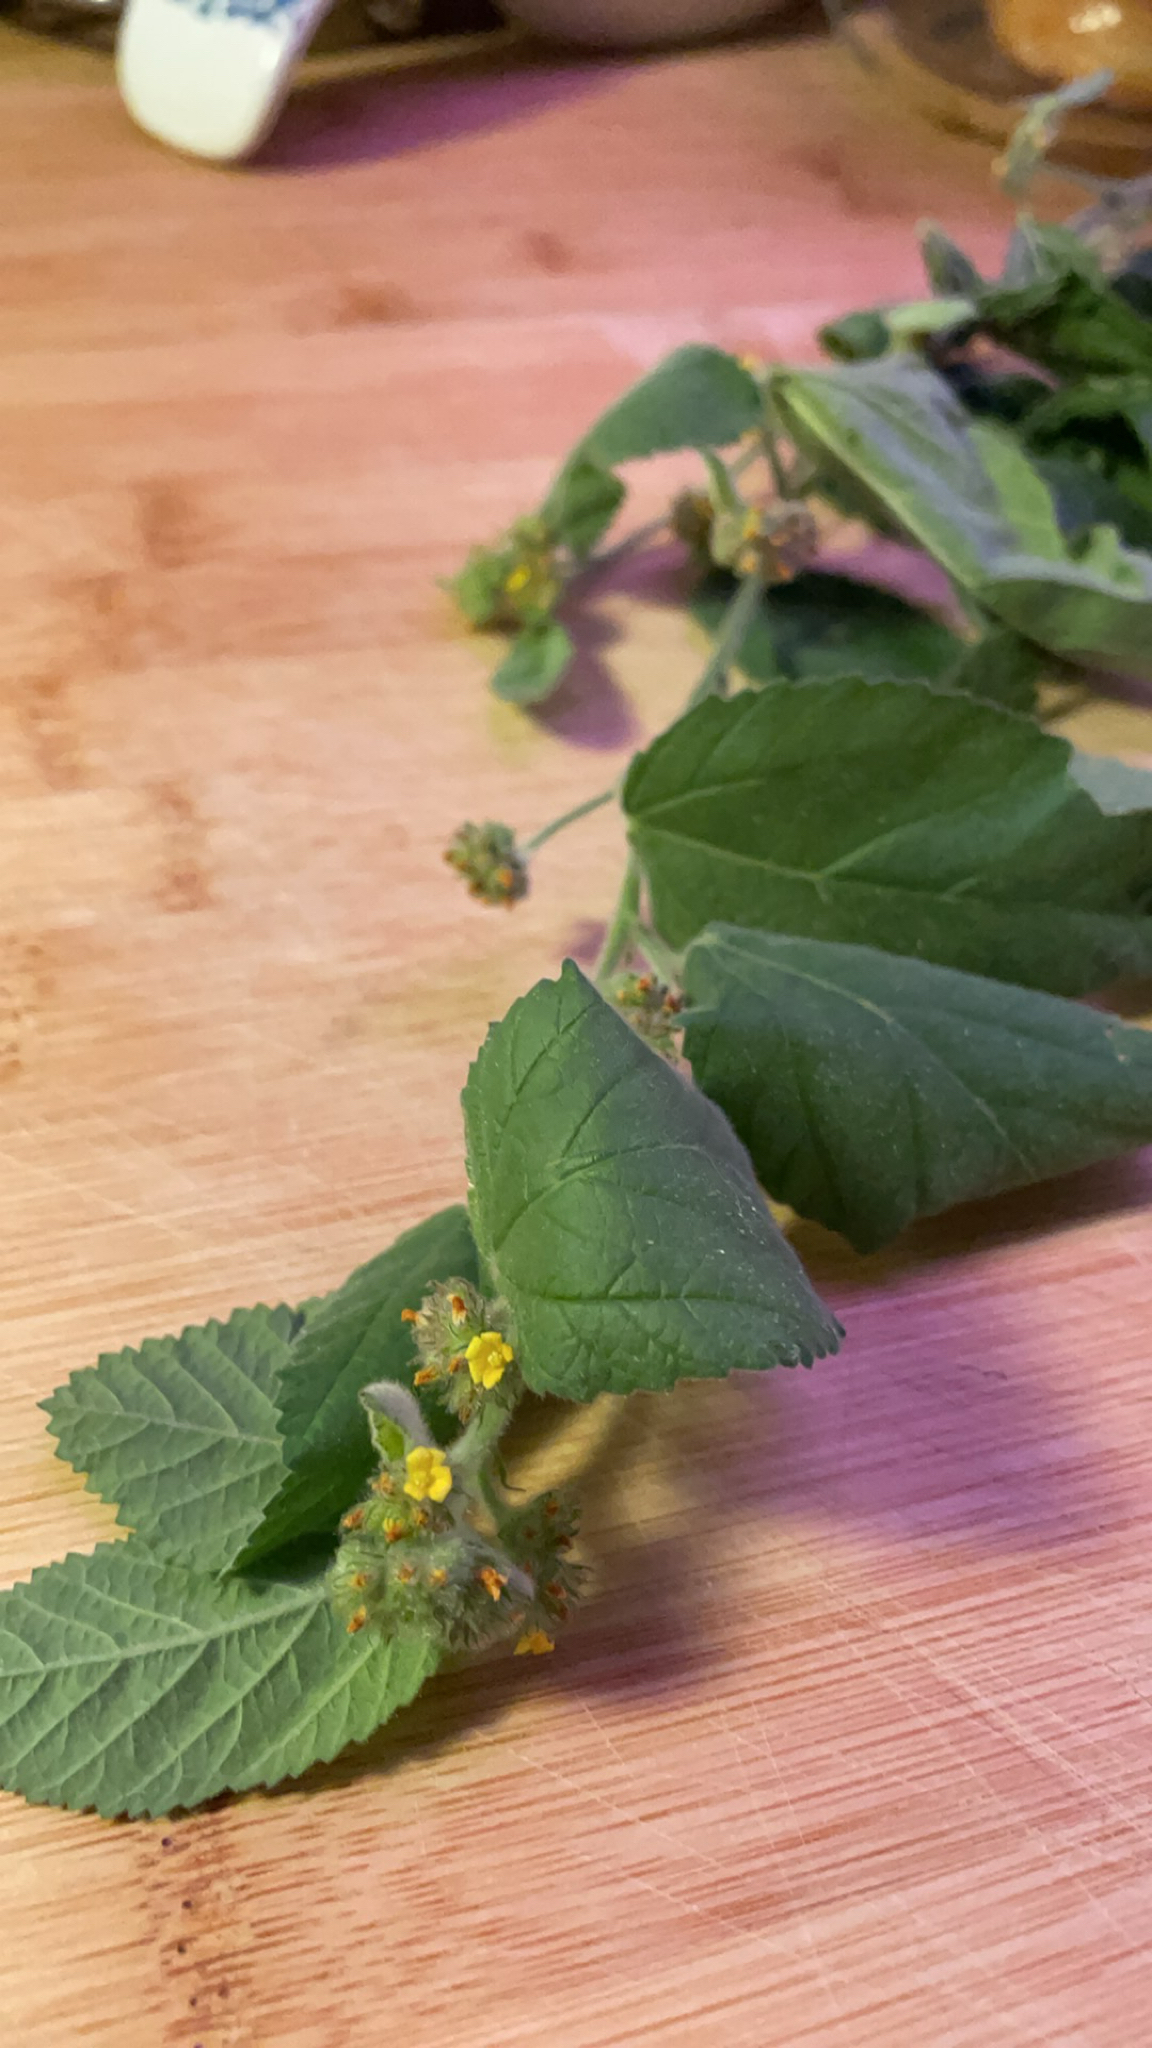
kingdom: Plantae
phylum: Tracheophyta
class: Magnoliopsida
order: Malvales
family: Malvaceae
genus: Waltheria
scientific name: Waltheria indica
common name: Leather-coat
